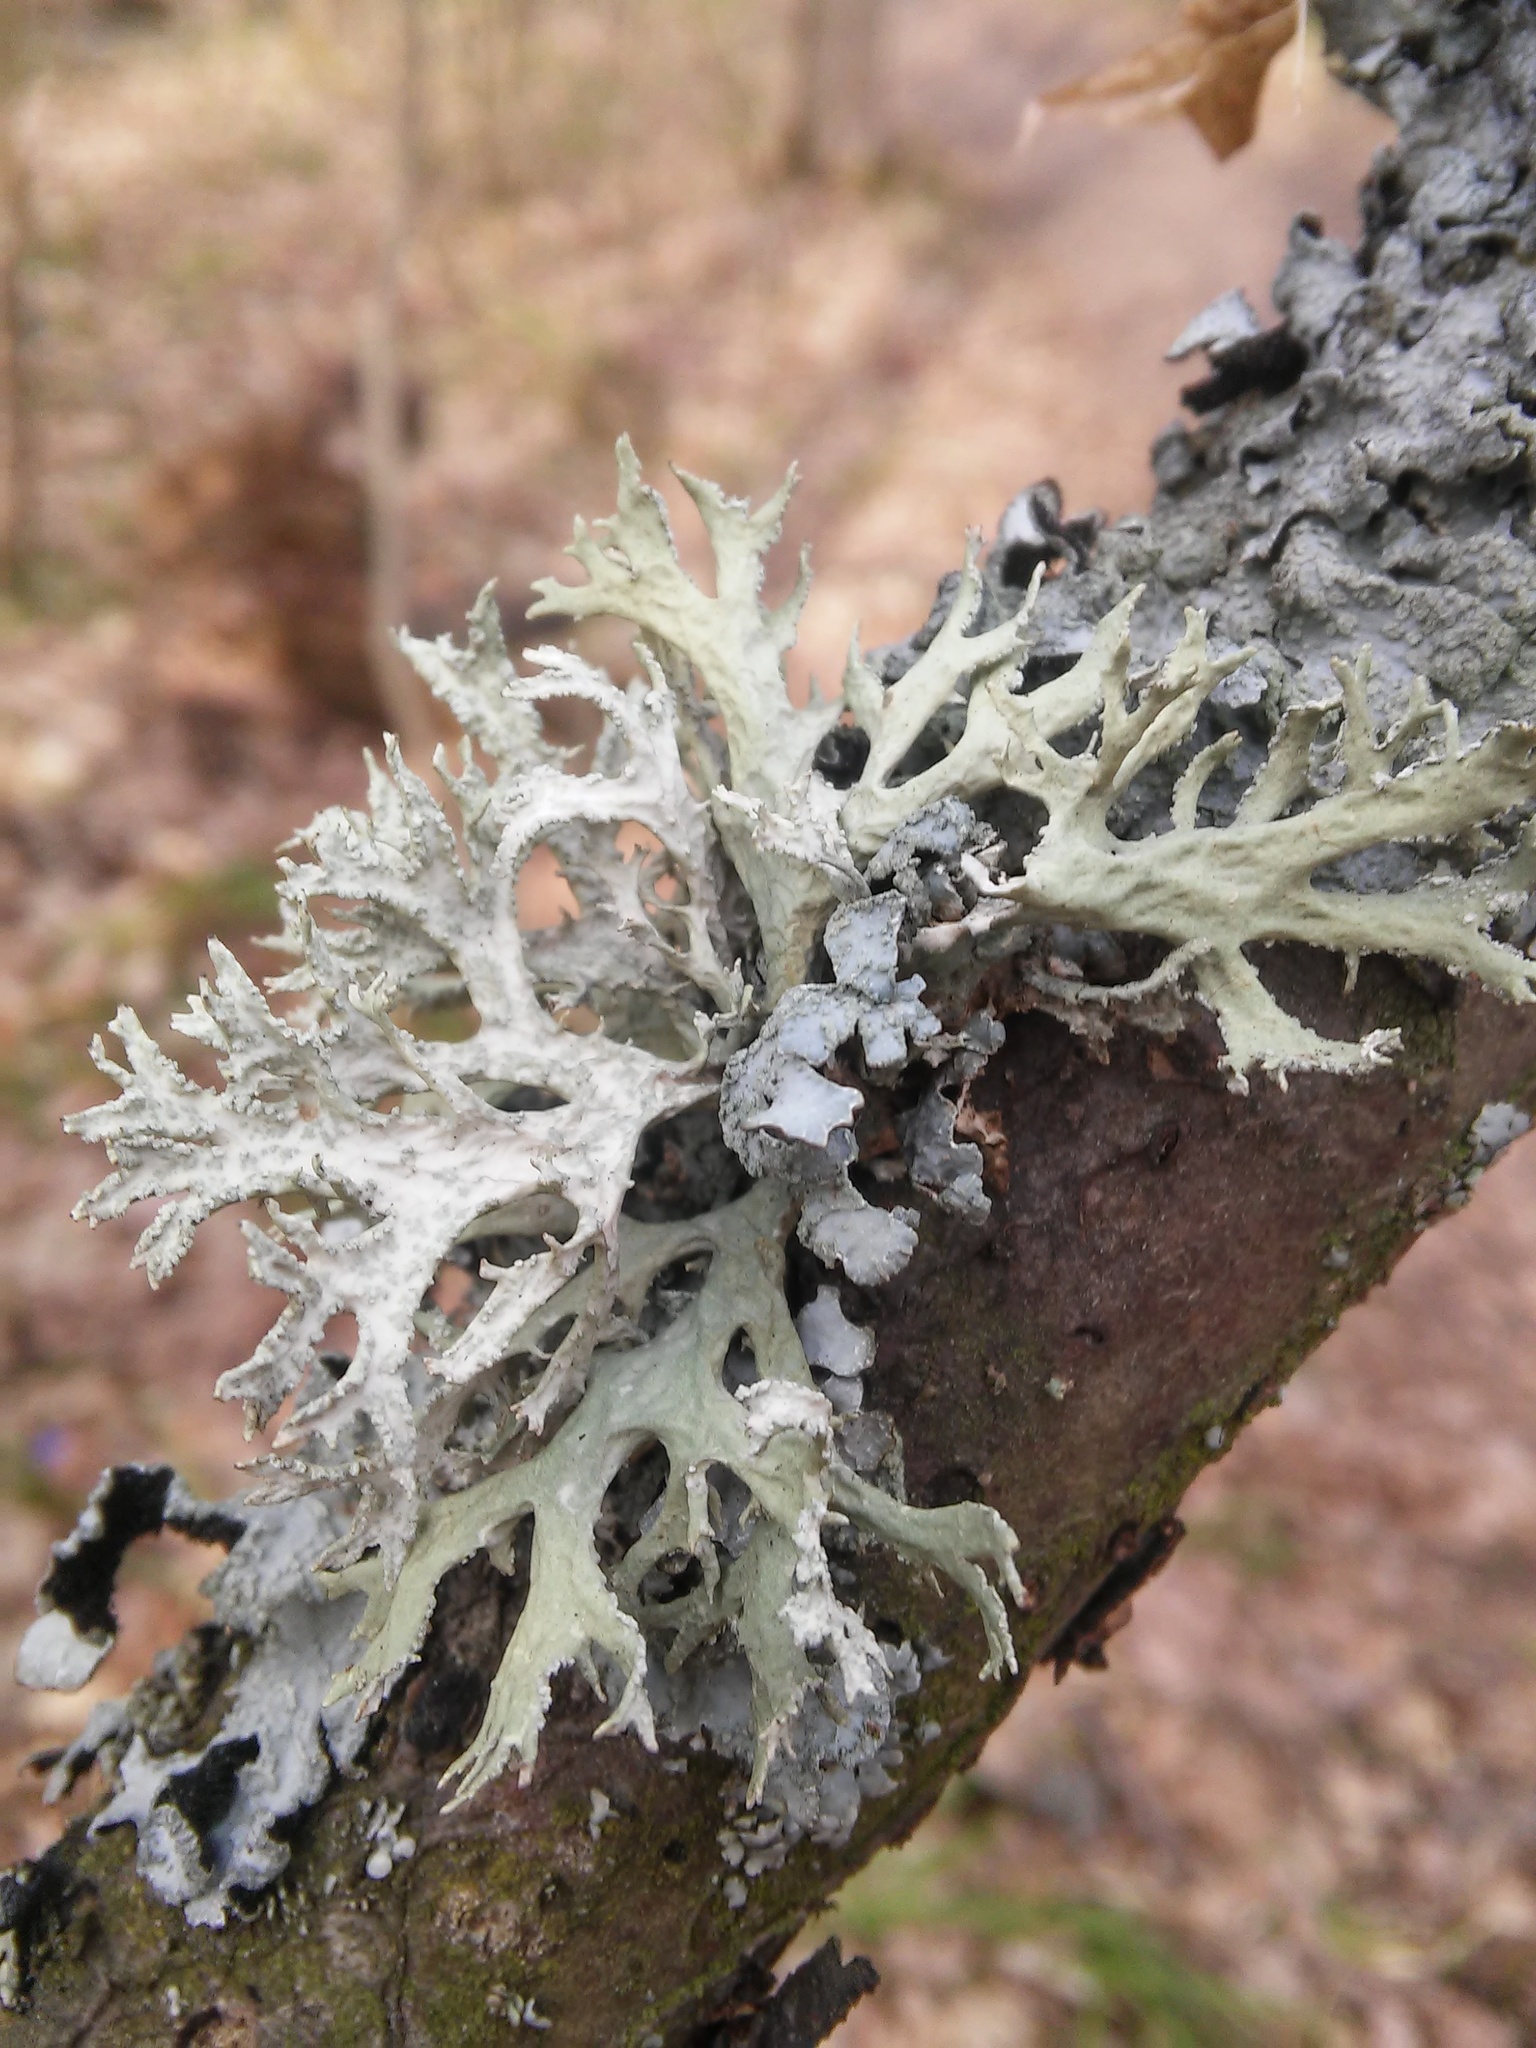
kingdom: Fungi
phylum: Ascomycota
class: Lecanoromycetes
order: Lecanorales
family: Parmeliaceae
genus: Evernia
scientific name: Evernia prunastri
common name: Oak moss
